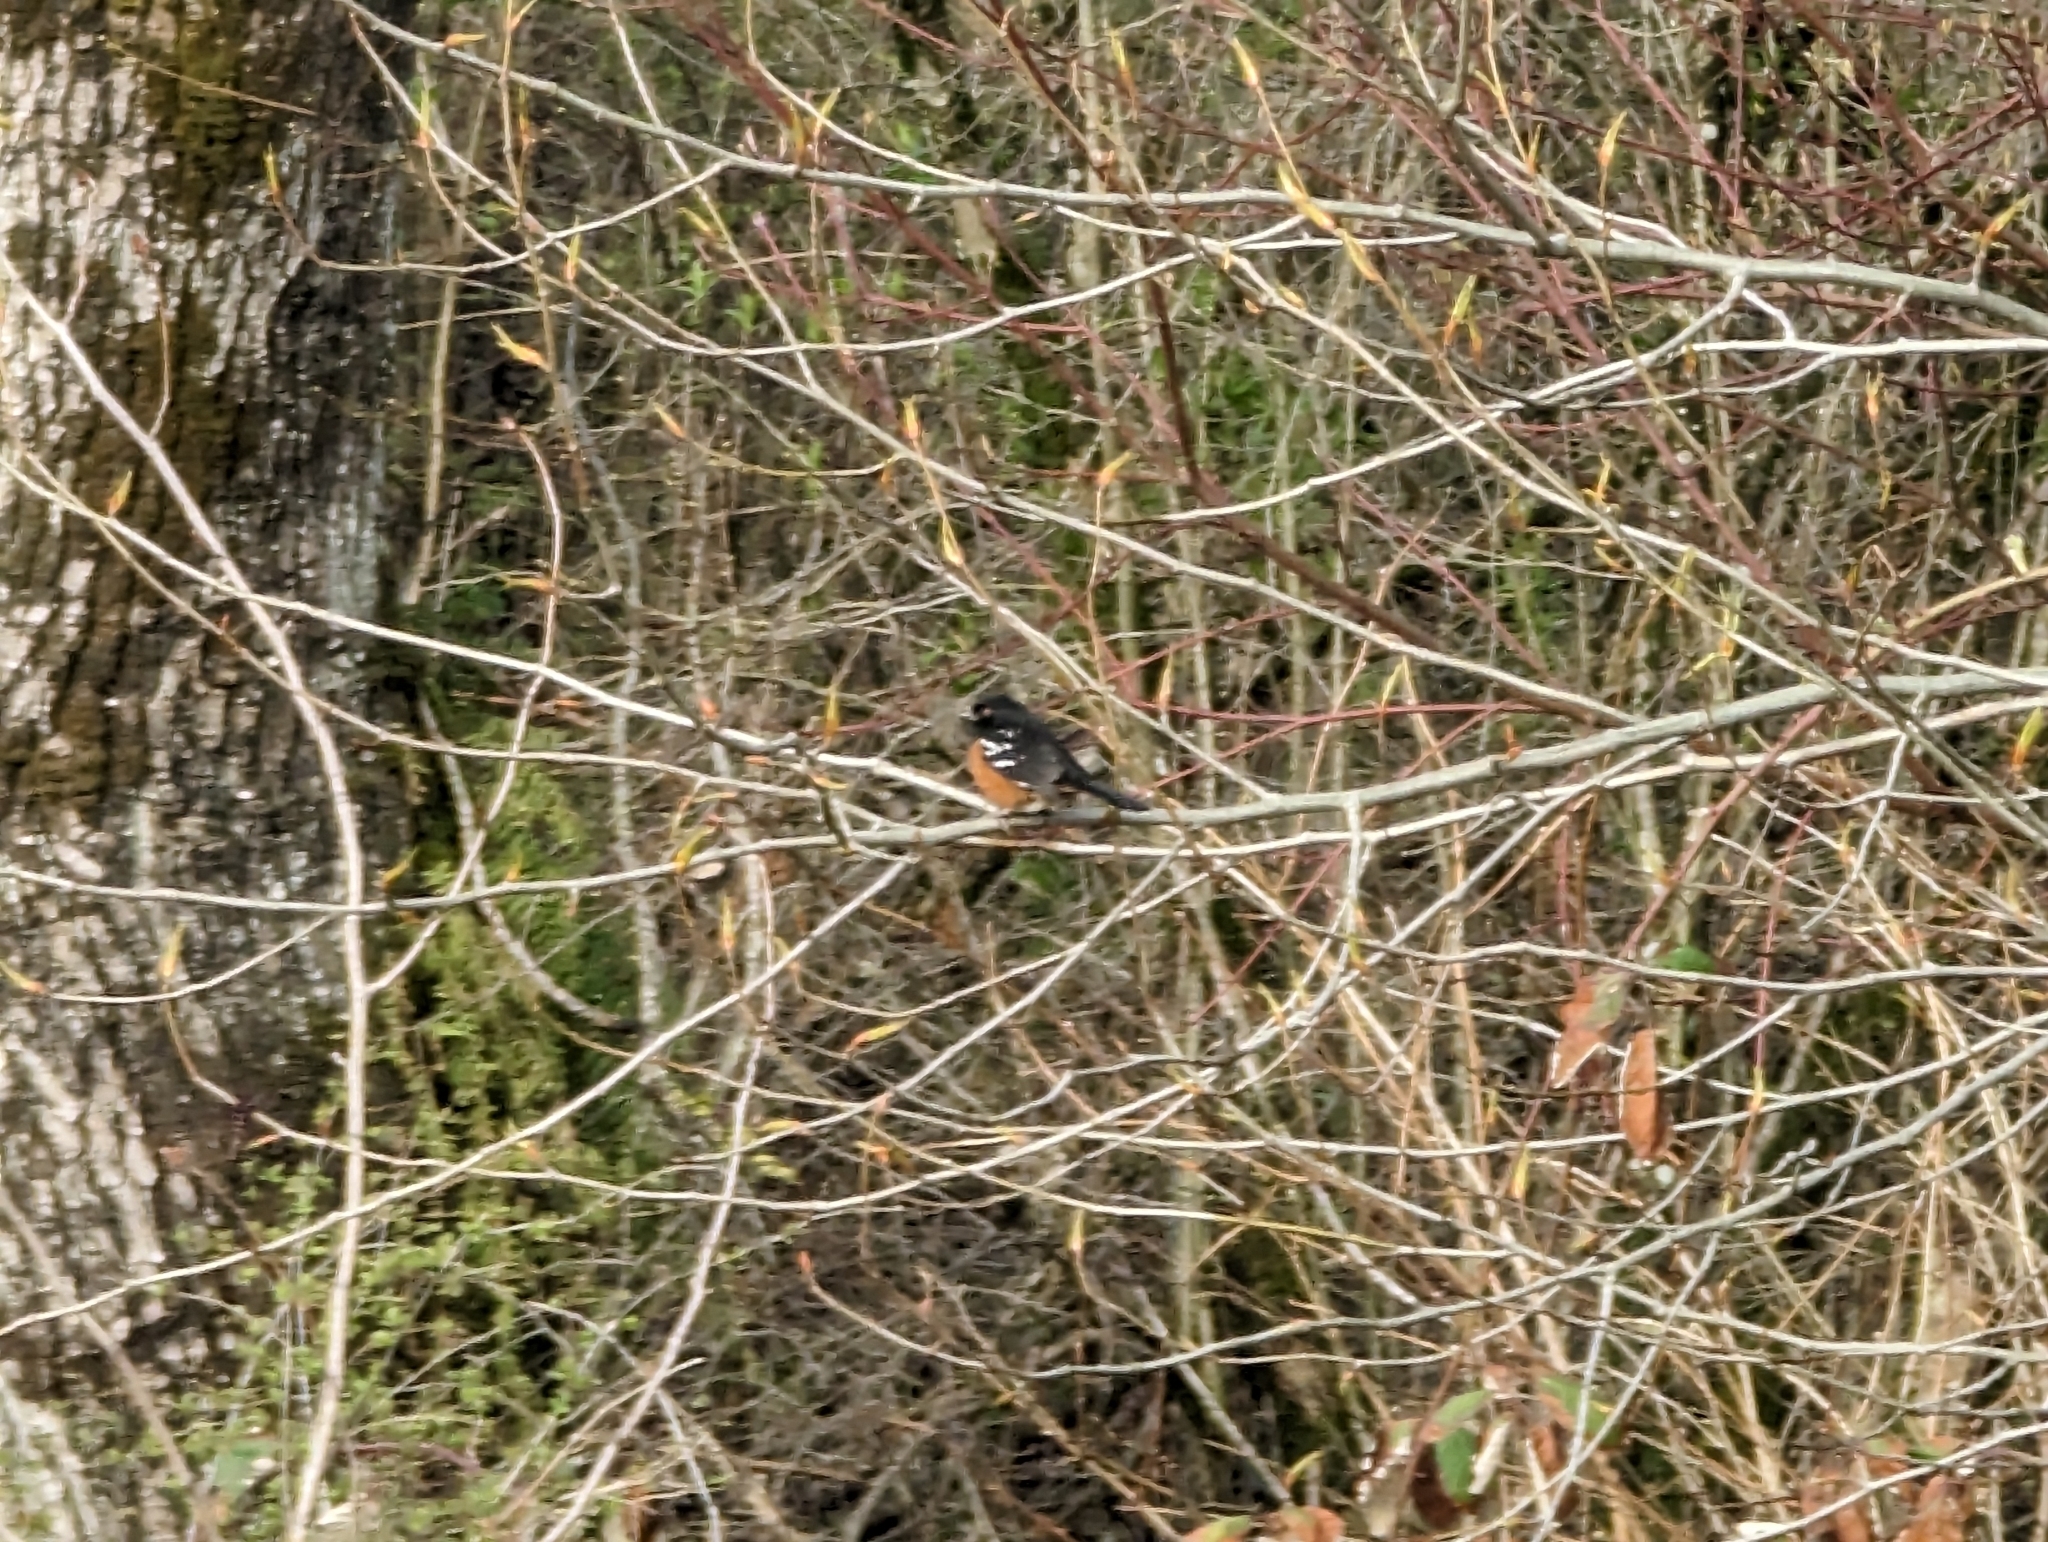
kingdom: Animalia
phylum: Chordata
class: Aves
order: Passeriformes
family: Passerellidae
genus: Pipilo
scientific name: Pipilo maculatus
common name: Spotted towhee
